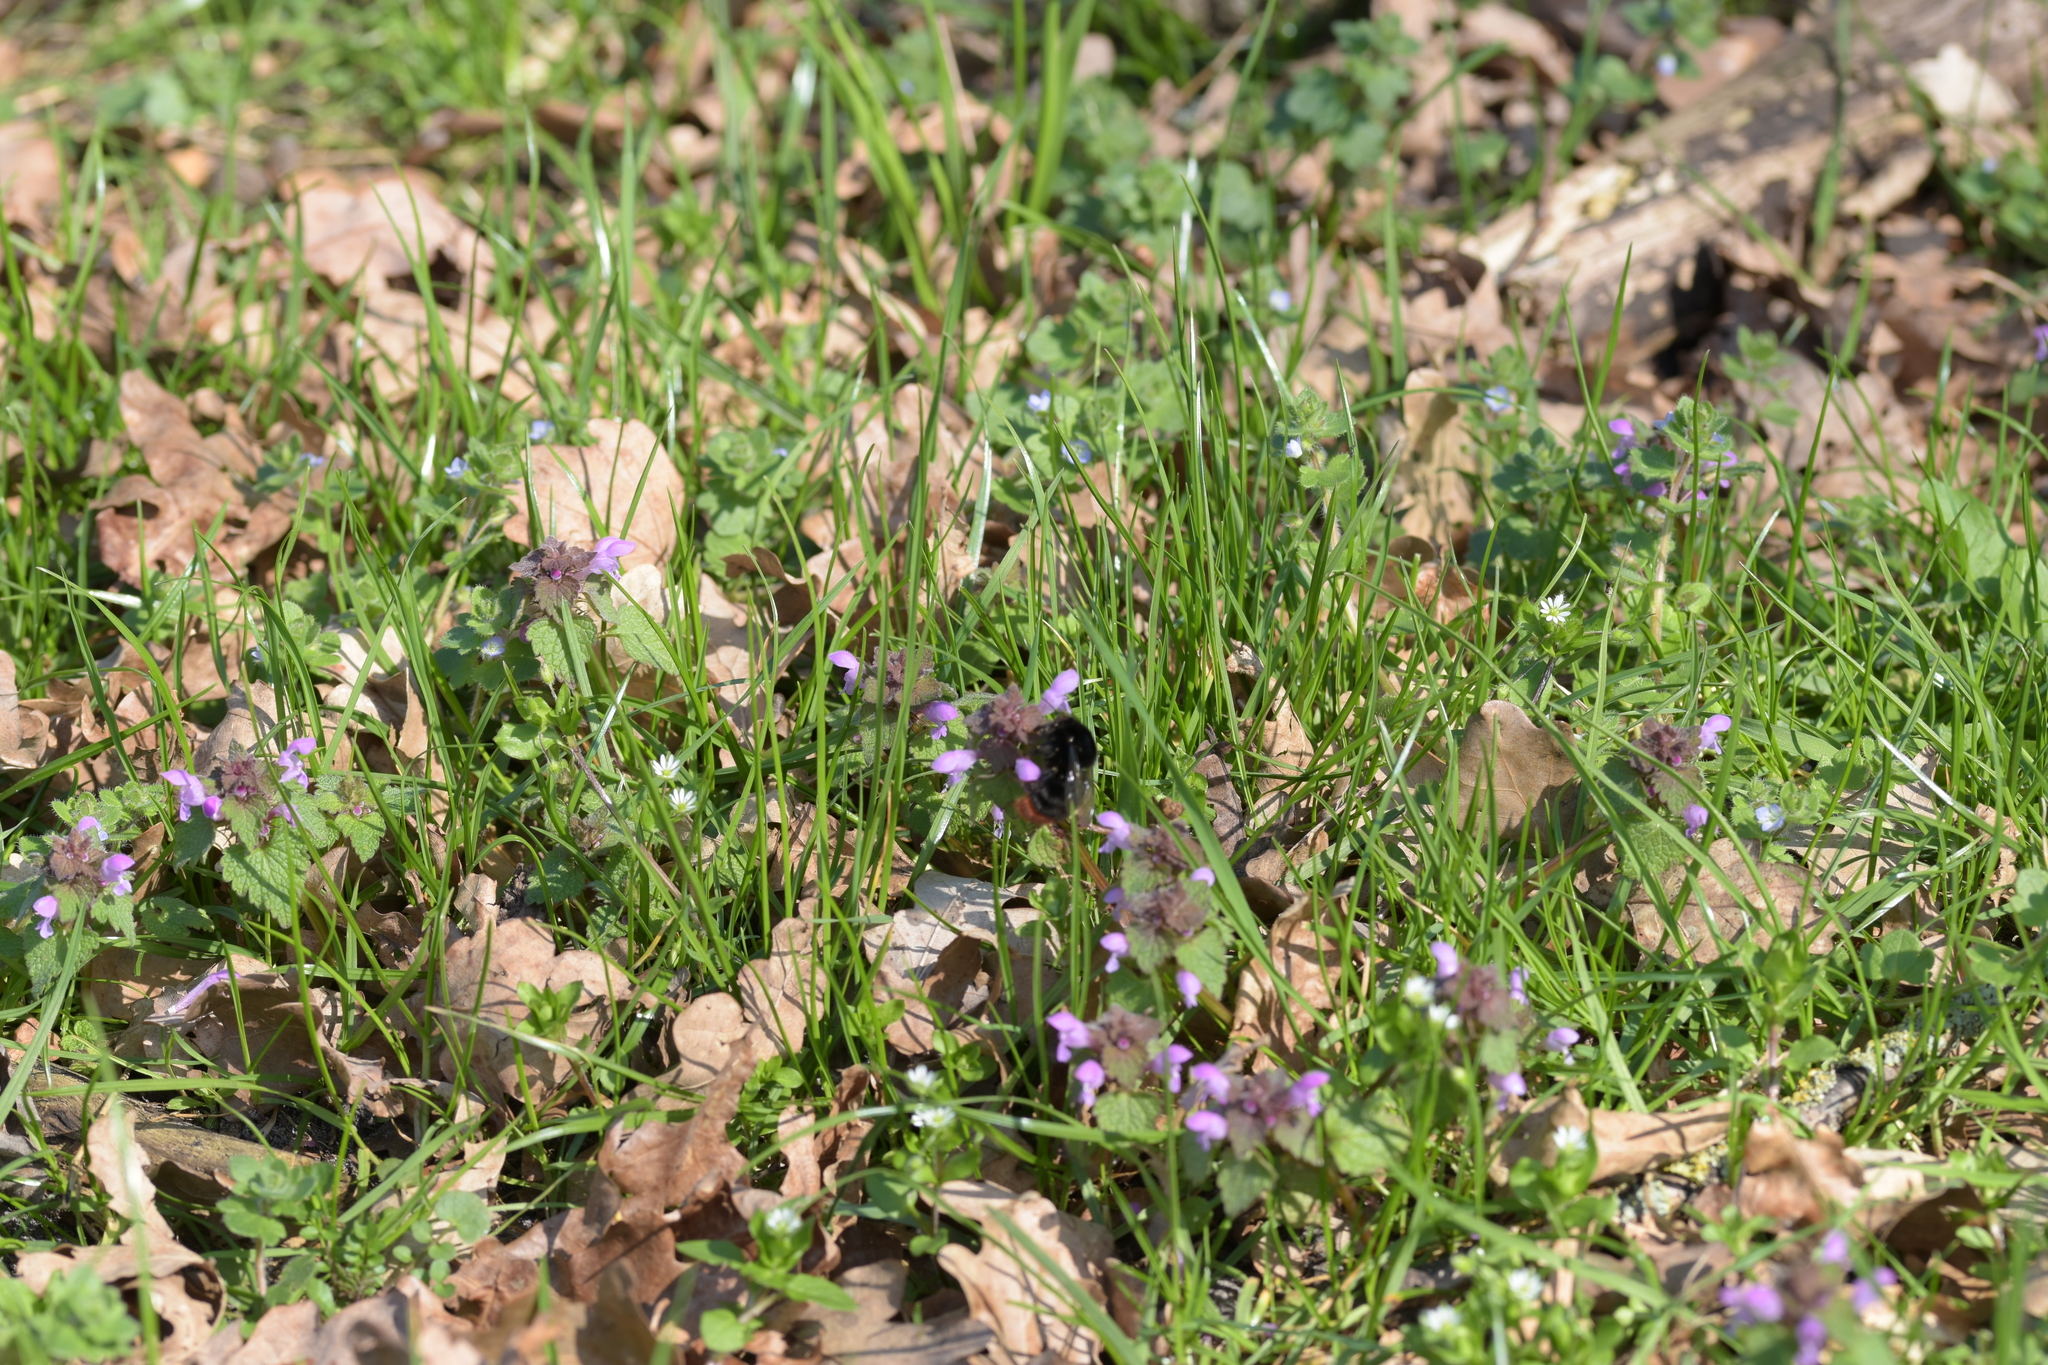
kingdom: Animalia
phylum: Arthropoda
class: Insecta
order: Hymenoptera
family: Apidae
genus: Bombus
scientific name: Bombus lapidarius
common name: Large red-tailed humble-bee
